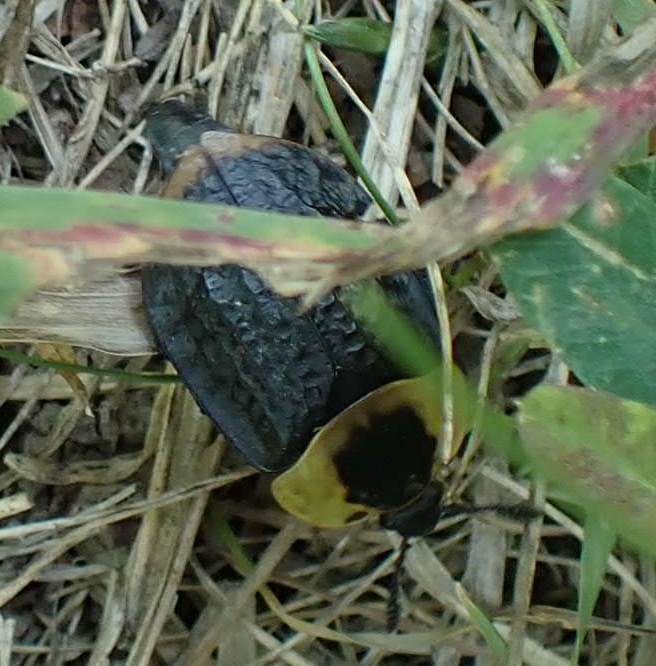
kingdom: Animalia
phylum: Arthropoda
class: Insecta
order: Coleoptera
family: Staphylinidae
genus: Necrophila
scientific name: Necrophila americana
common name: American carrion beetle
